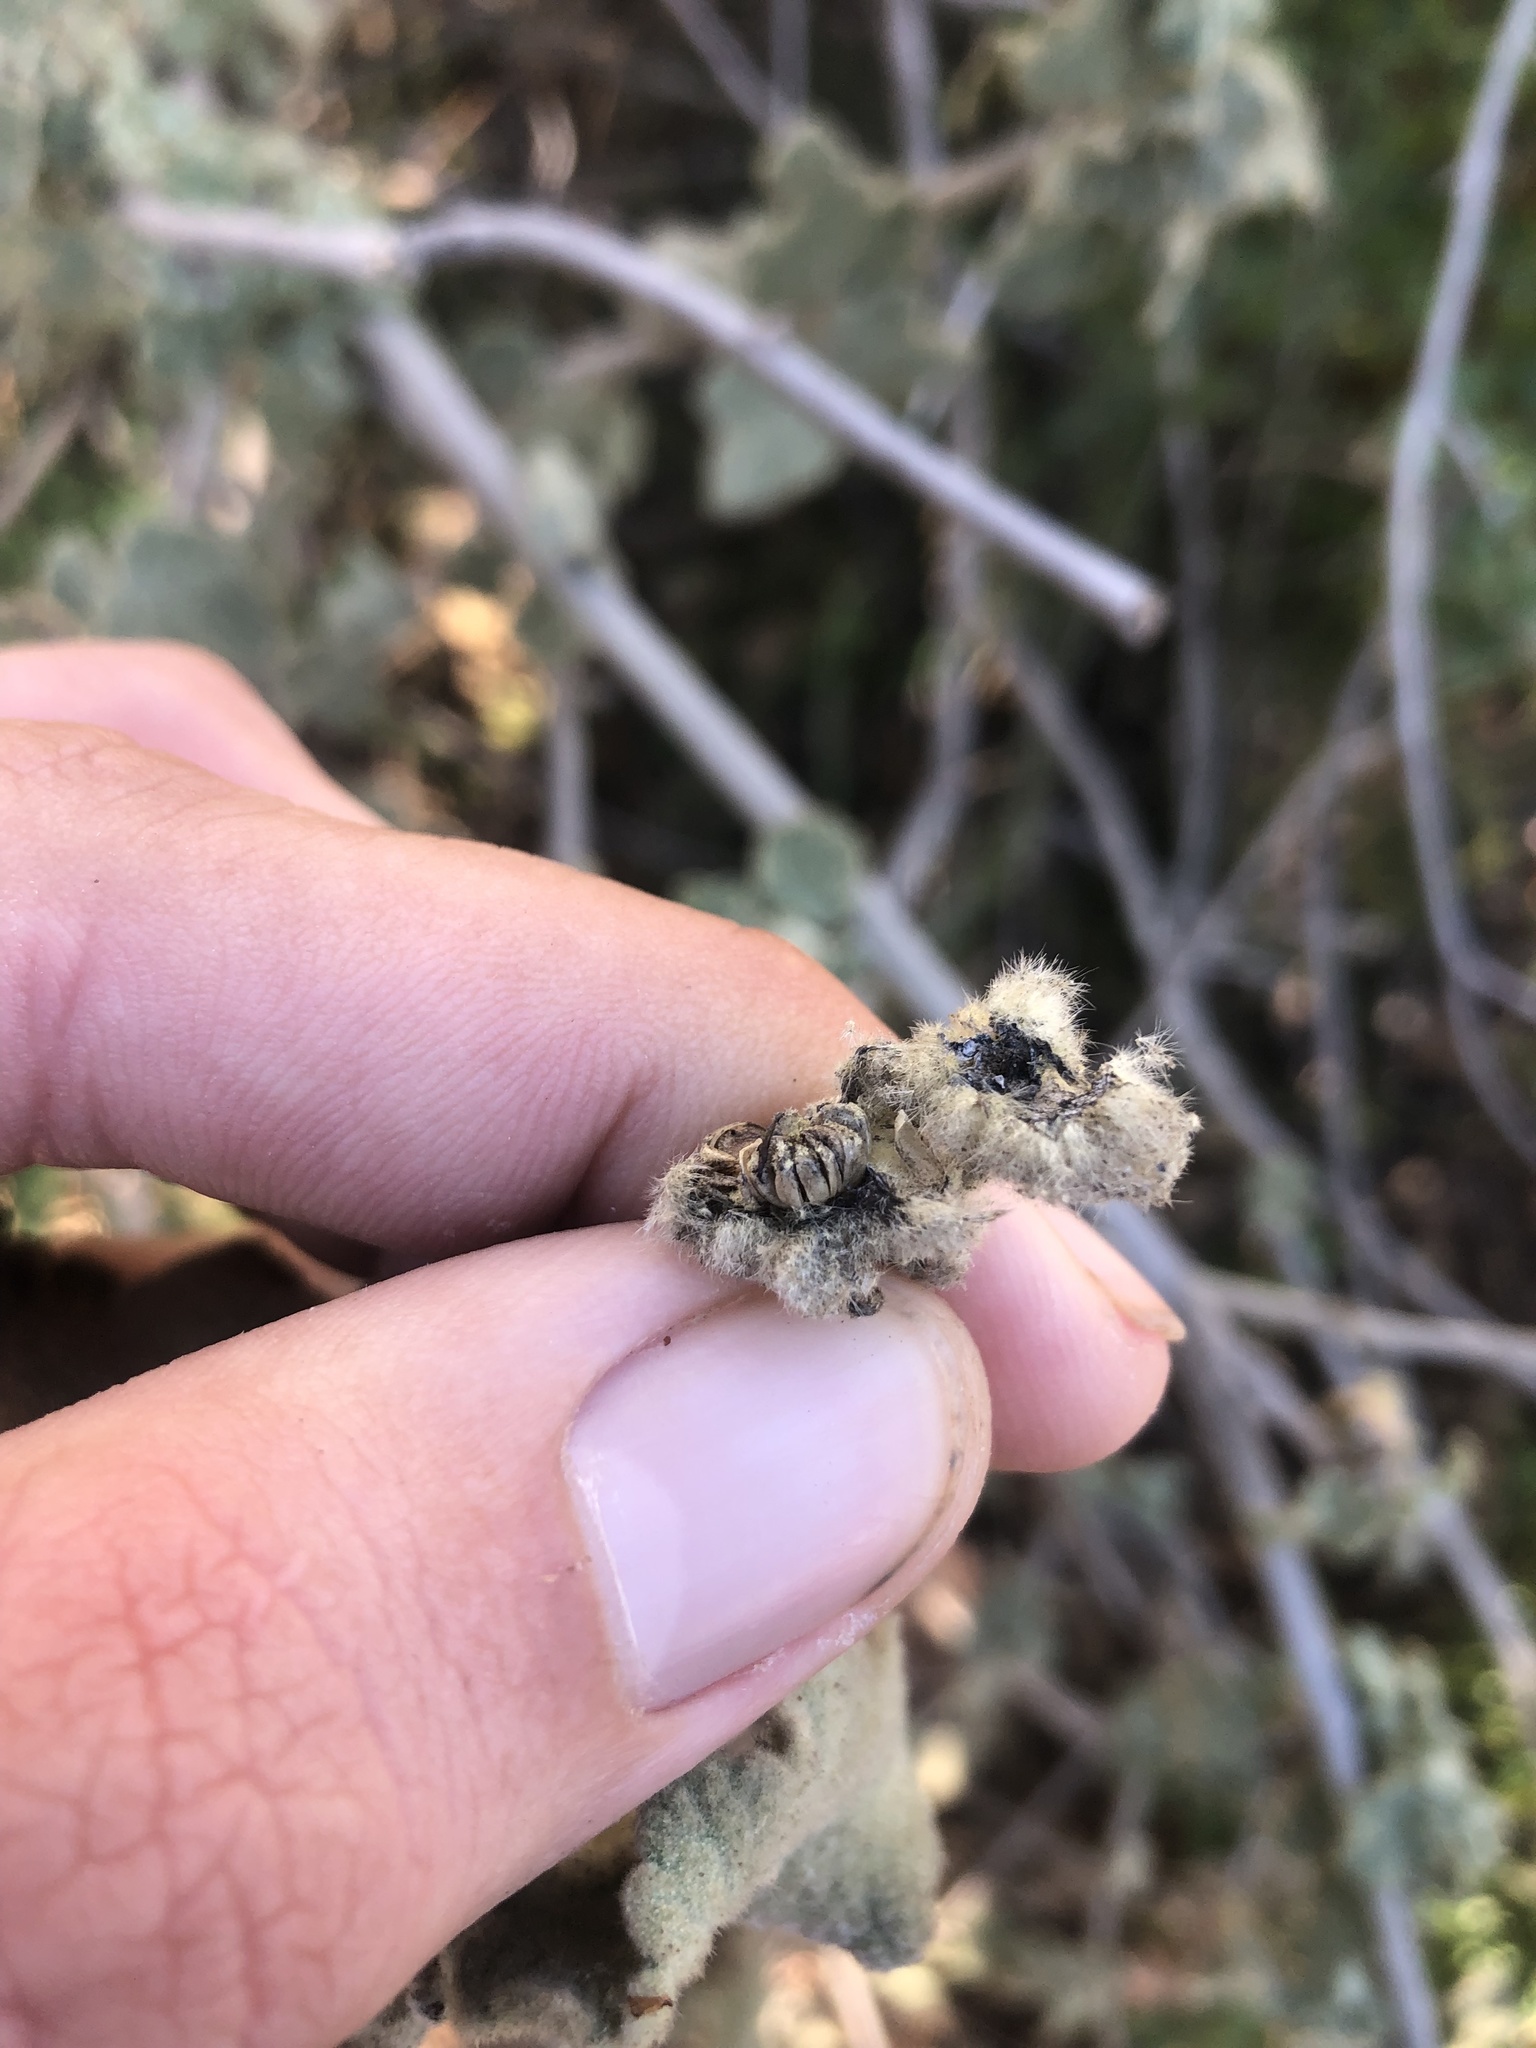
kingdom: Plantae
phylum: Tracheophyta
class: Magnoliopsida
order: Malvales
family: Malvaceae
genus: Malacothamnus
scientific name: Malacothamnus fremontii
